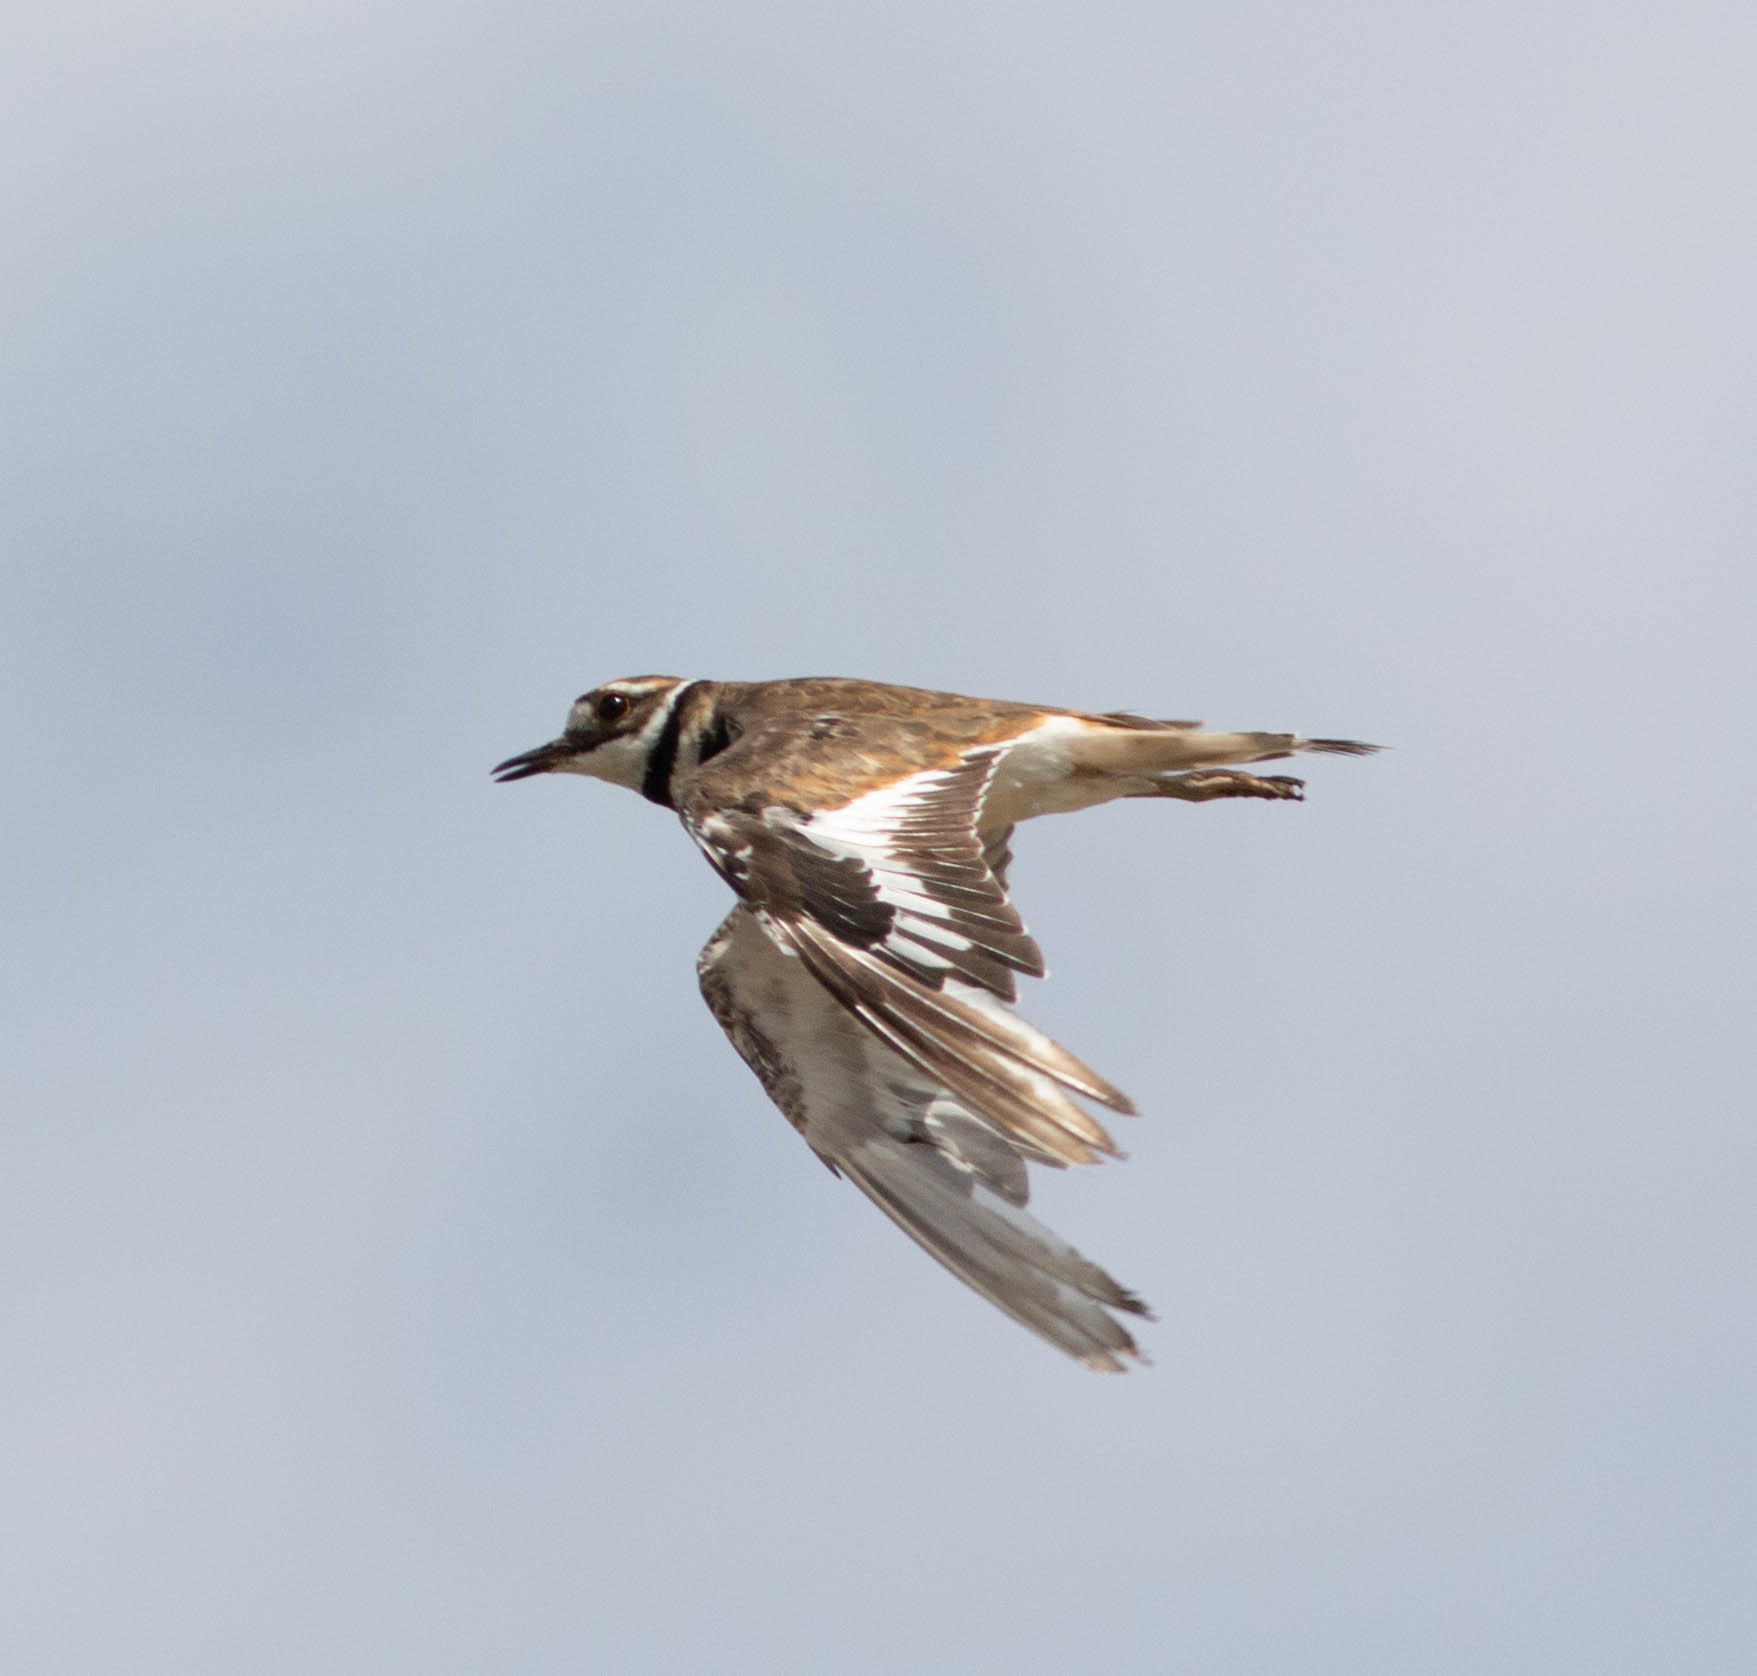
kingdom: Animalia
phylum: Chordata
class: Aves
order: Charadriiformes
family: Charadriidae
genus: Charadrius
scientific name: Charadrius vociferus
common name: Killdeer
